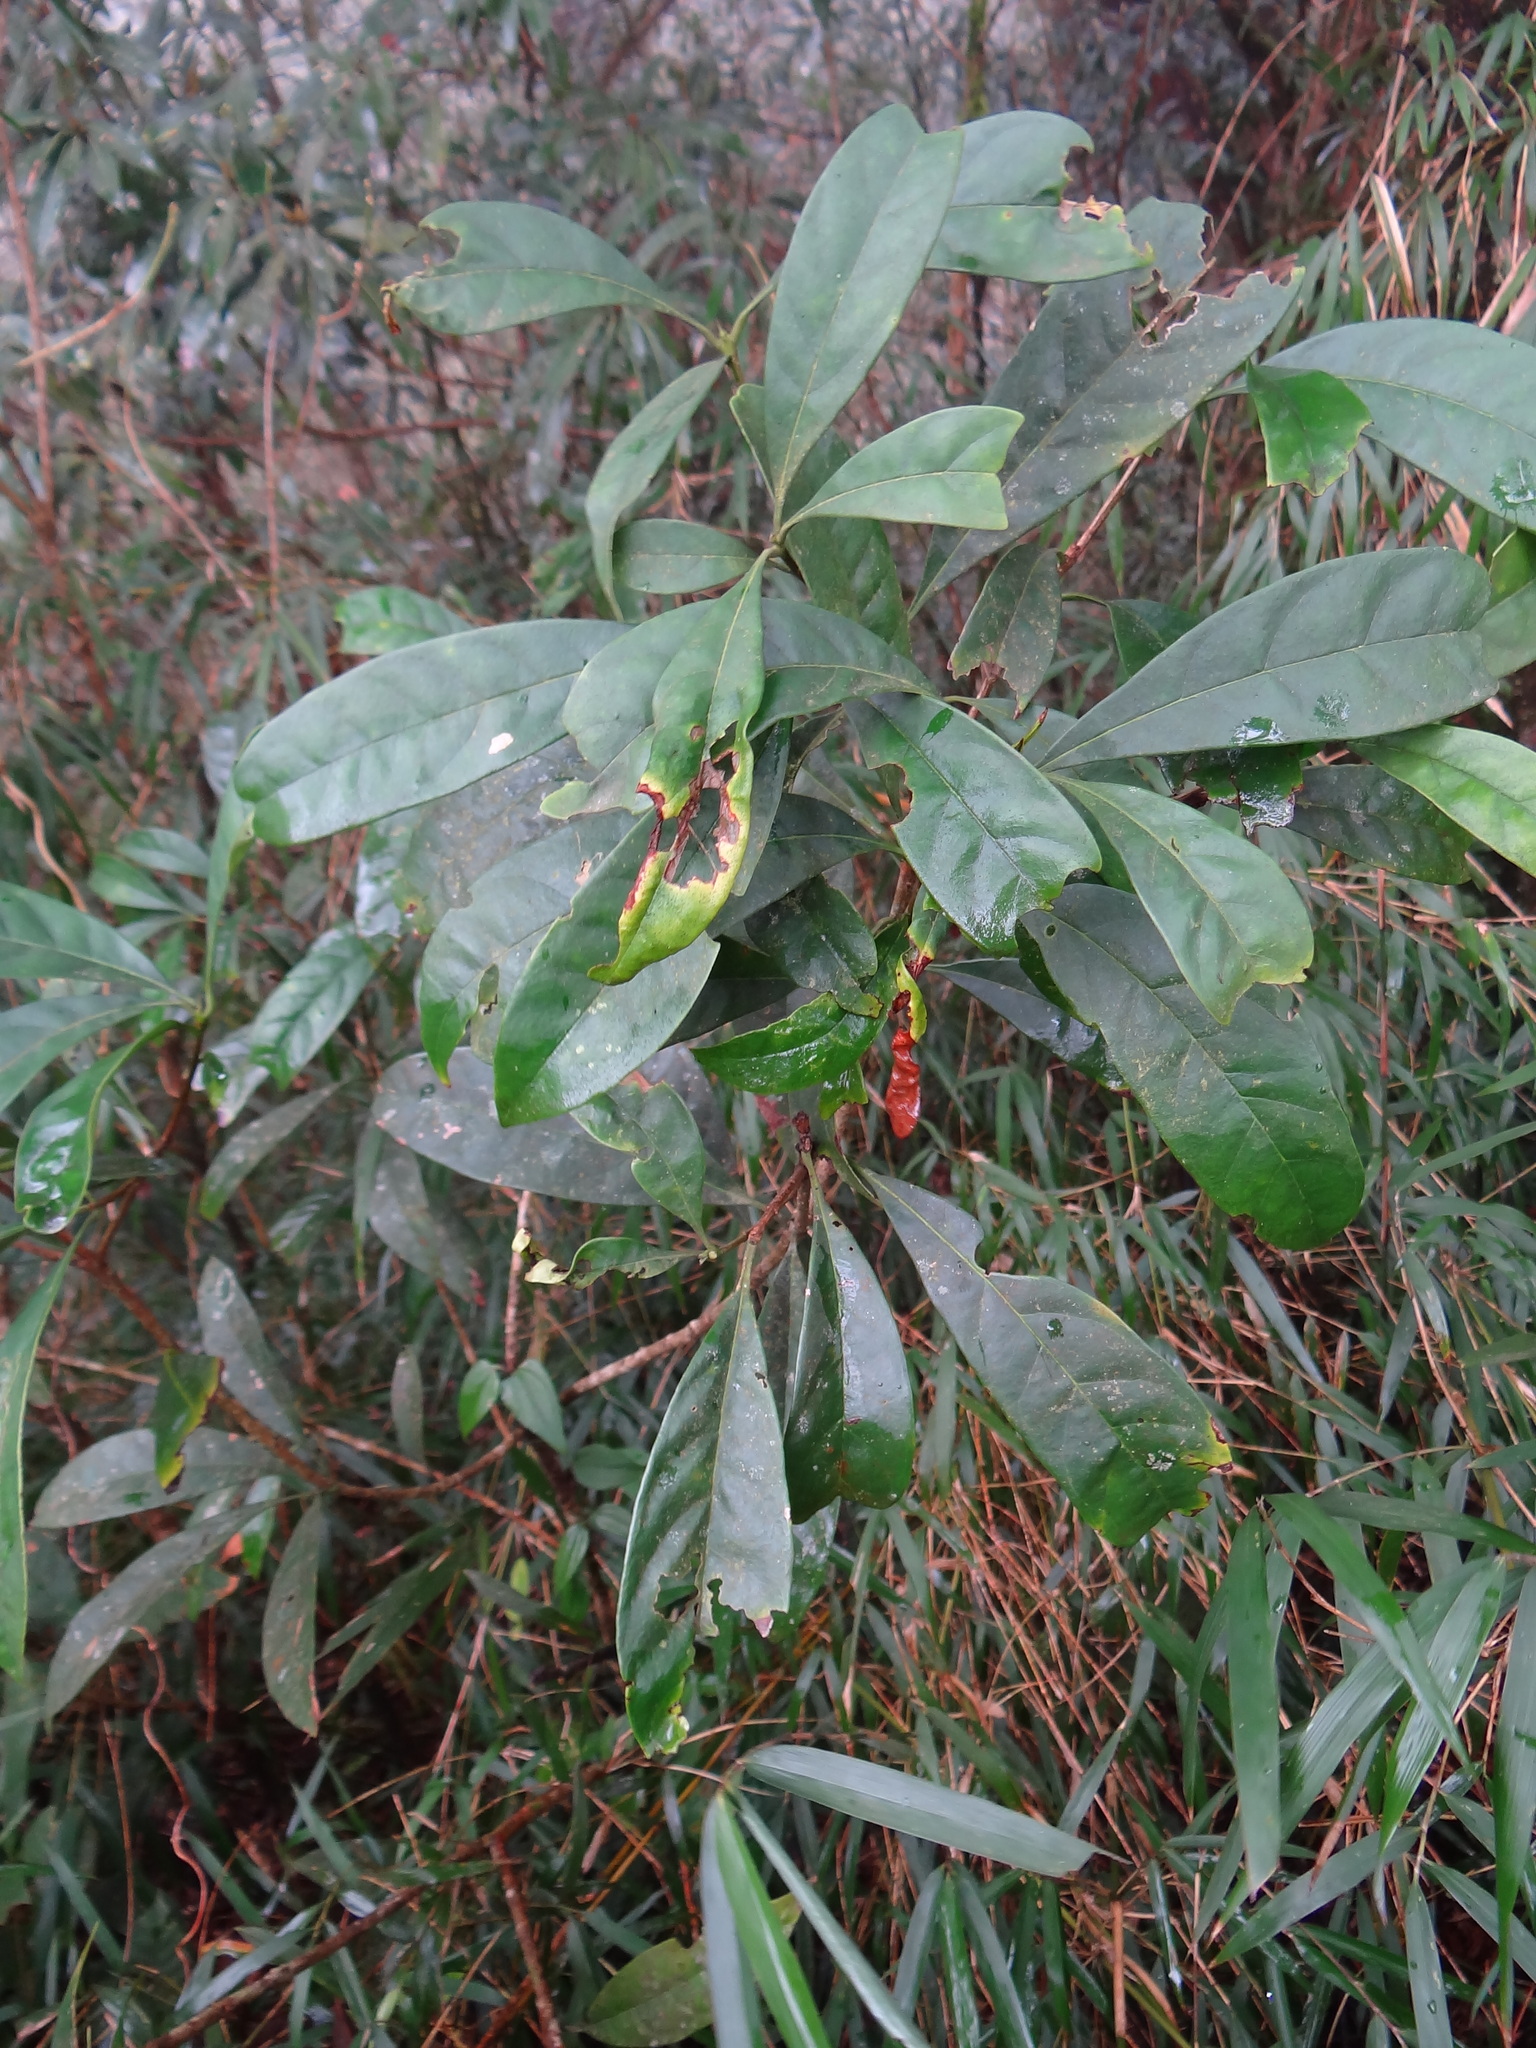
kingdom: Plantae
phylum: Tracheophyta
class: Magnoliopsida
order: Lamiales
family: Oleaceae
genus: Chengiodendron
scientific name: Chengiodendron matsumuranum
